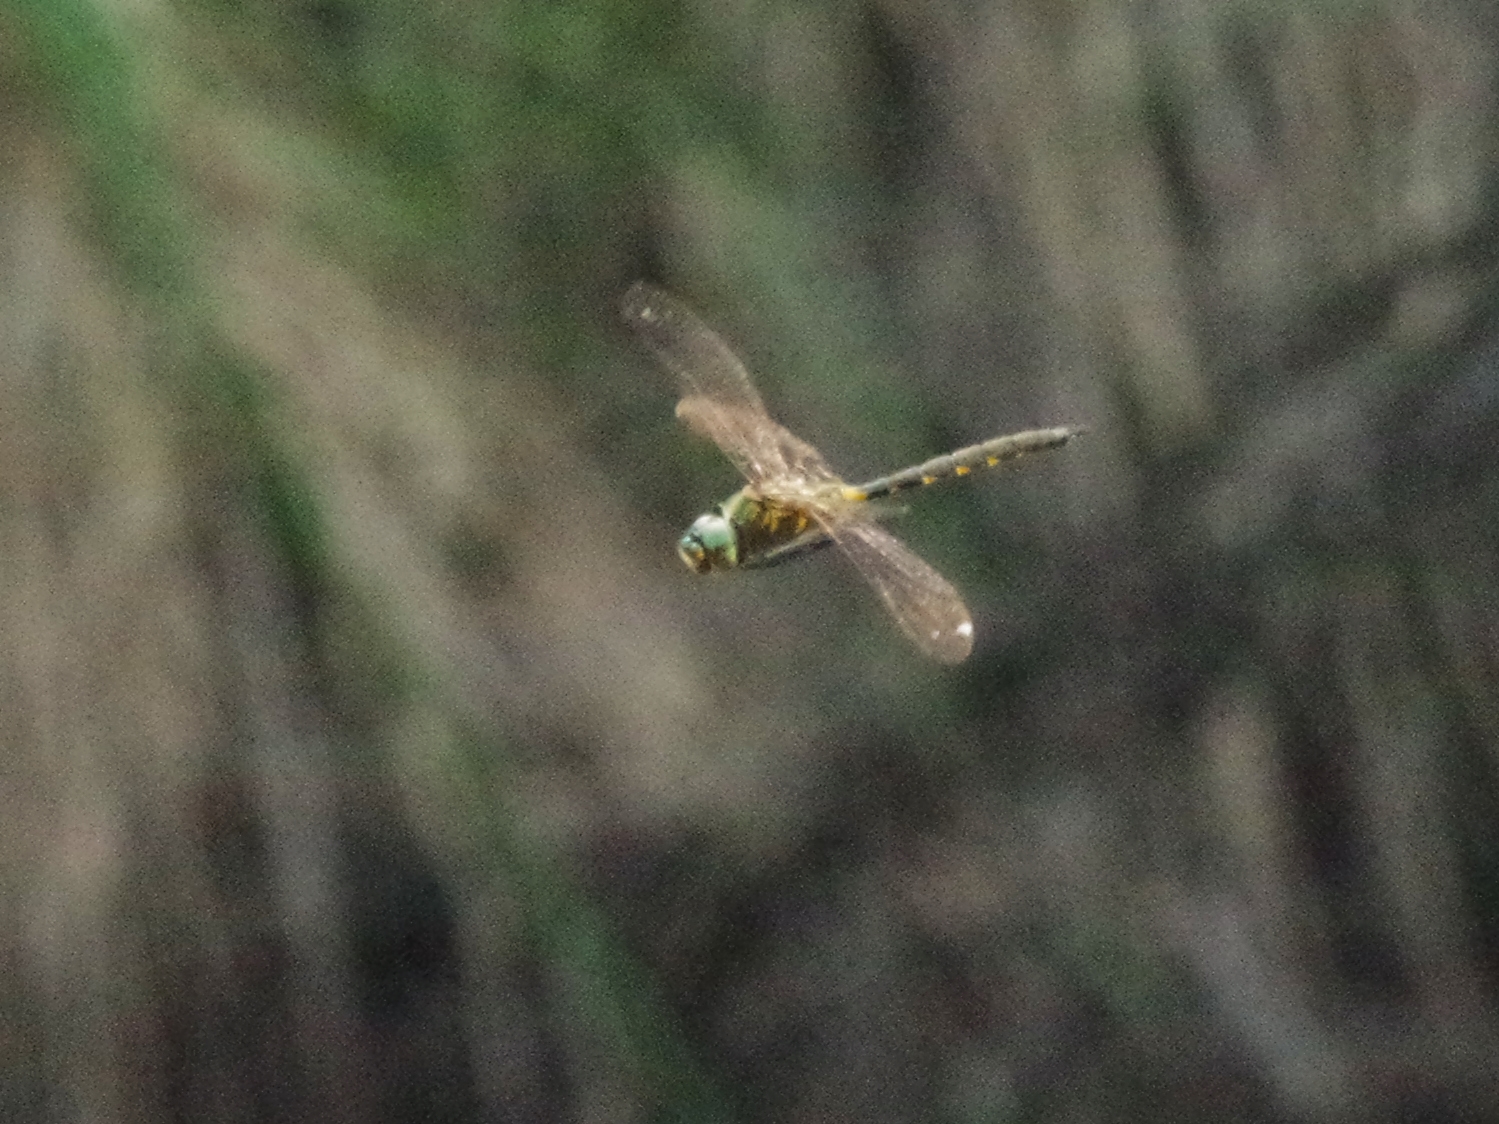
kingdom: Animalia
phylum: Arthropoda
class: Insecta
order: Odonata
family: Corduliidae
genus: Somatochlora
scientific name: Somatochlora flavomaculata
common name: Yellow-spotted emerald
